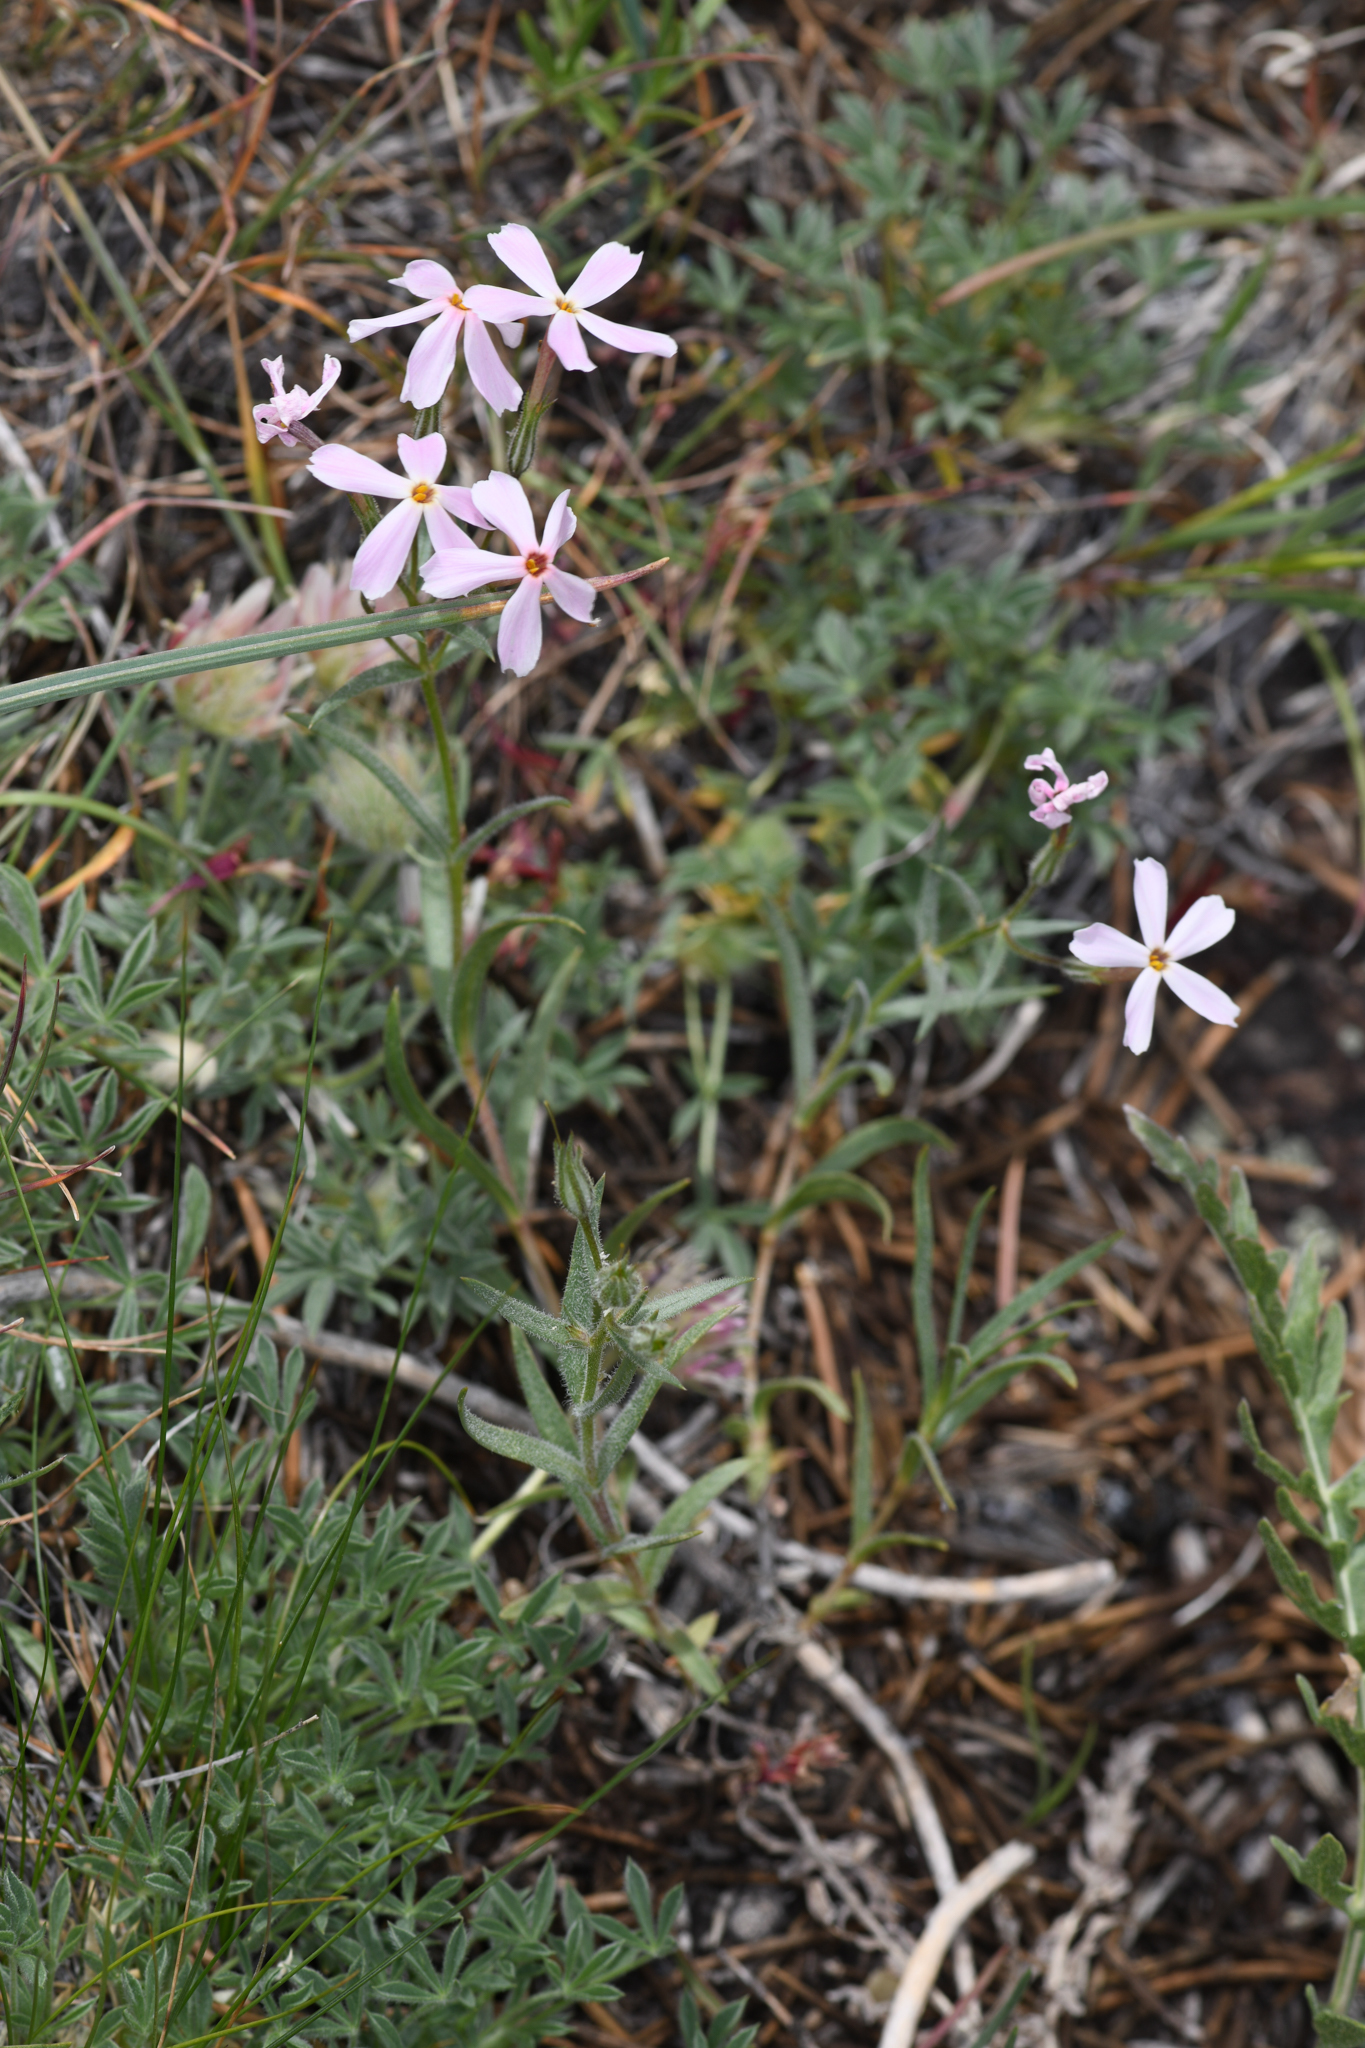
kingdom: Plantae
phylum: Tracheophyta
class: Magnoliopsida
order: Ericales
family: Polemoniaceae
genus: Phlox
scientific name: Phlox longifolia
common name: Longleaf phlox
